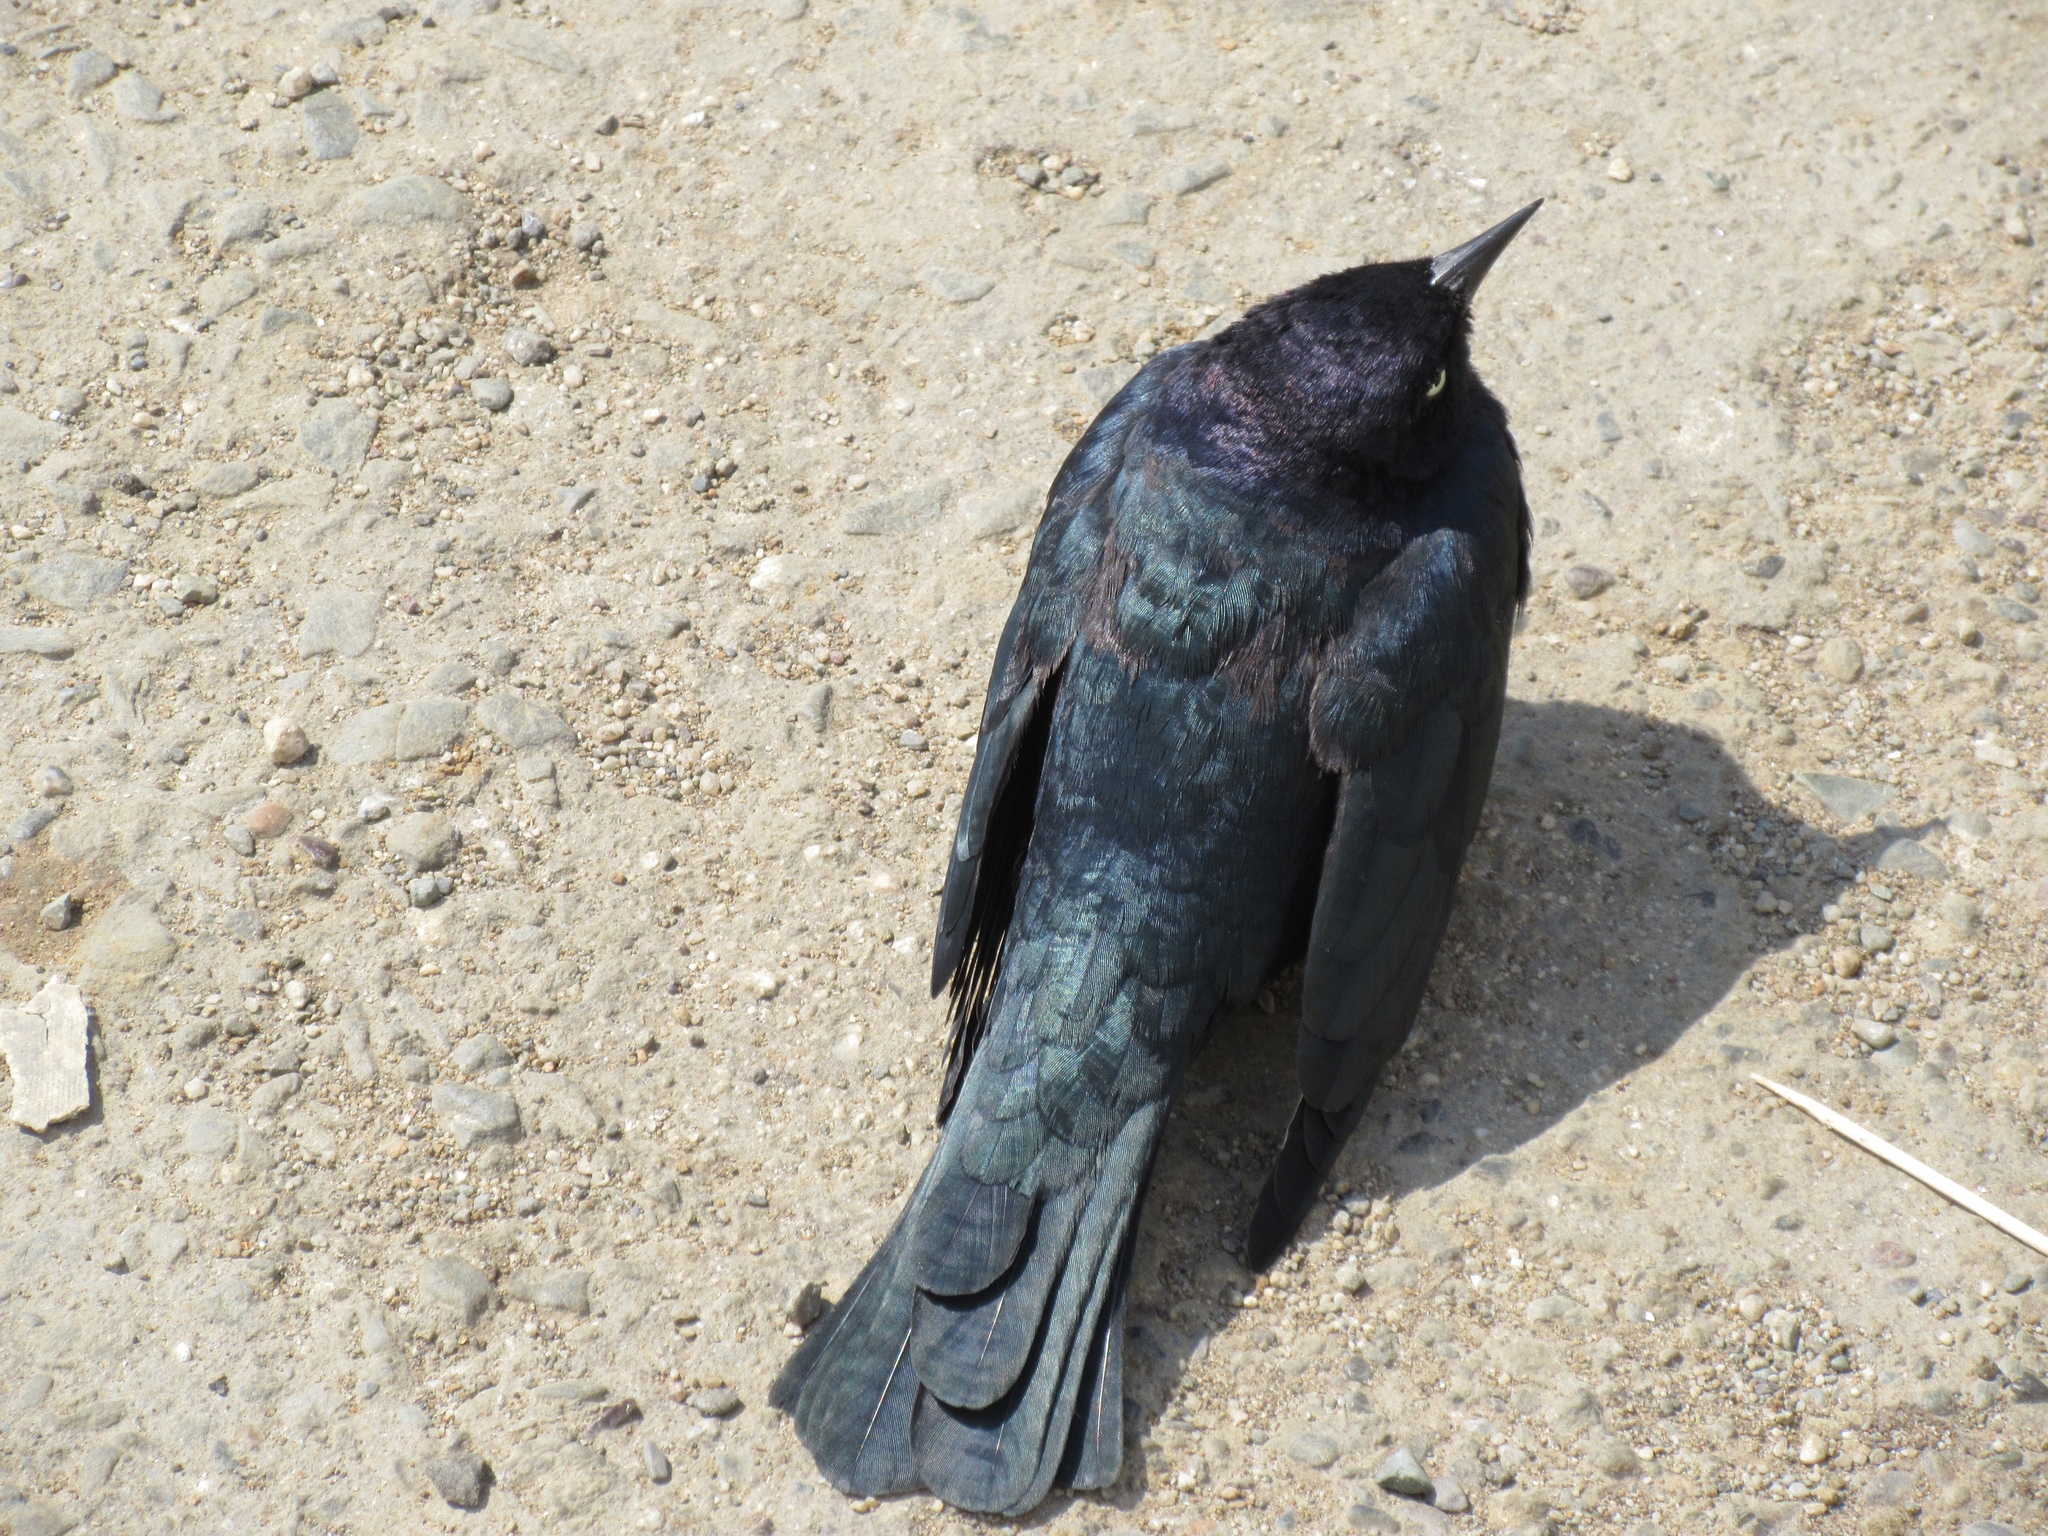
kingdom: Animalia
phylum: Chordata
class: Aves
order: Passeriformes
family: Icteridae
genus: Euphagus
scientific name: Euphagus cyanocephalus
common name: Brewer's blackbird
